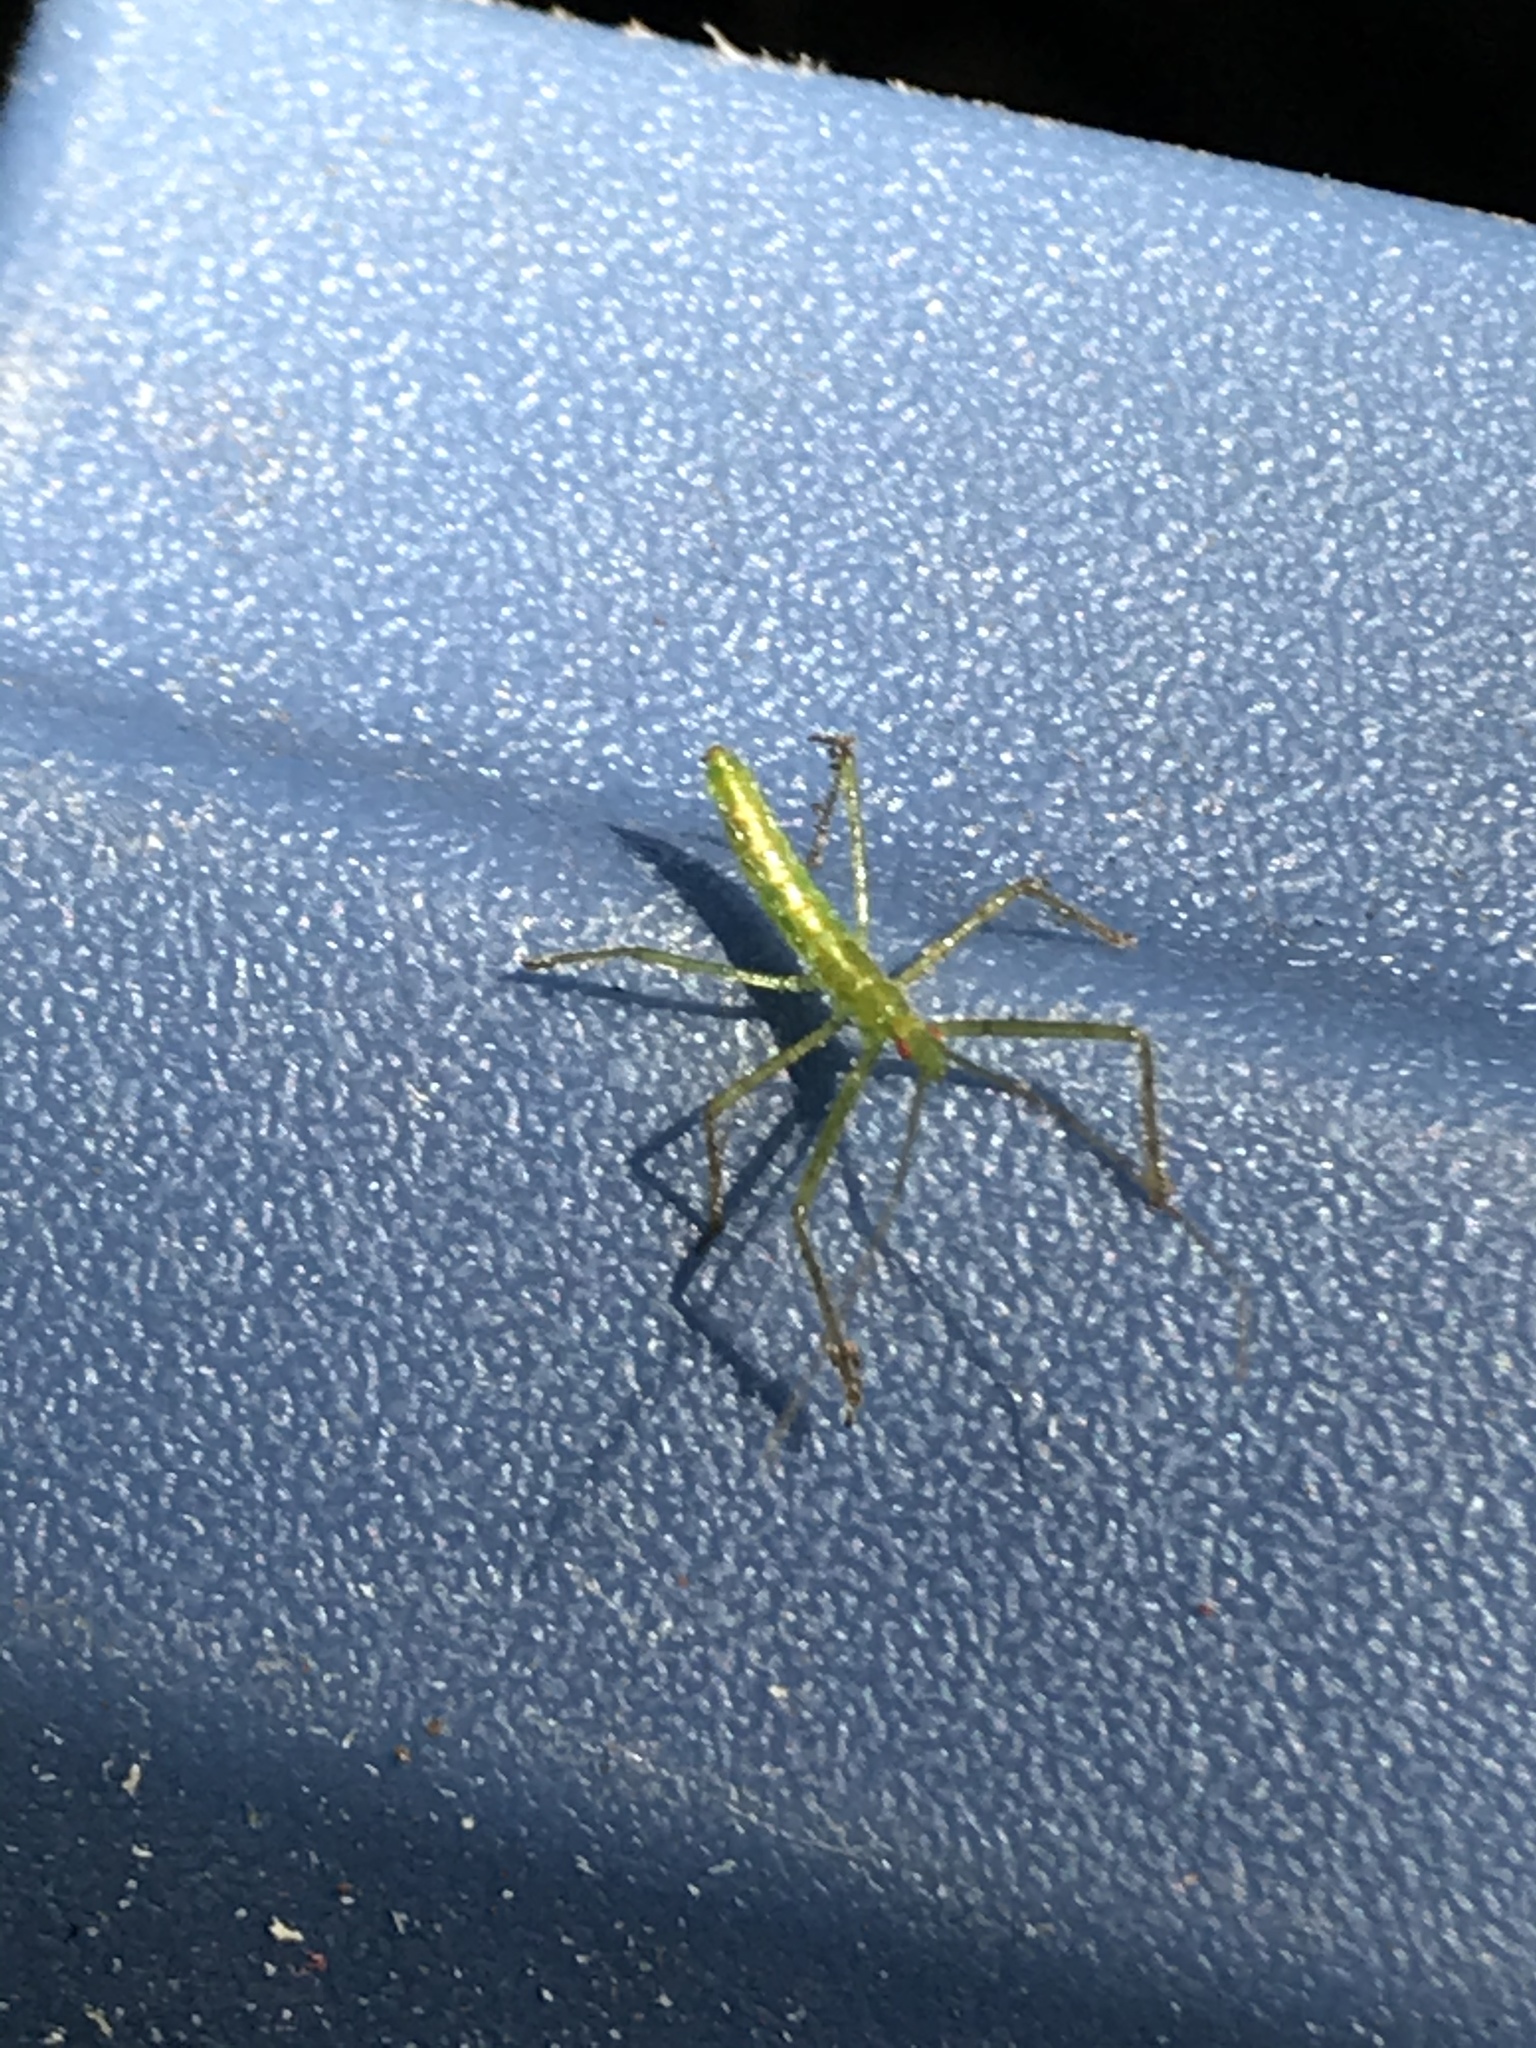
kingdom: Animalia
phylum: Arthropoda
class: Insecta
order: Hemiptera
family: Reduviidae
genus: Zelus
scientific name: Zelus luridus
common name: Pale green assassin bug
